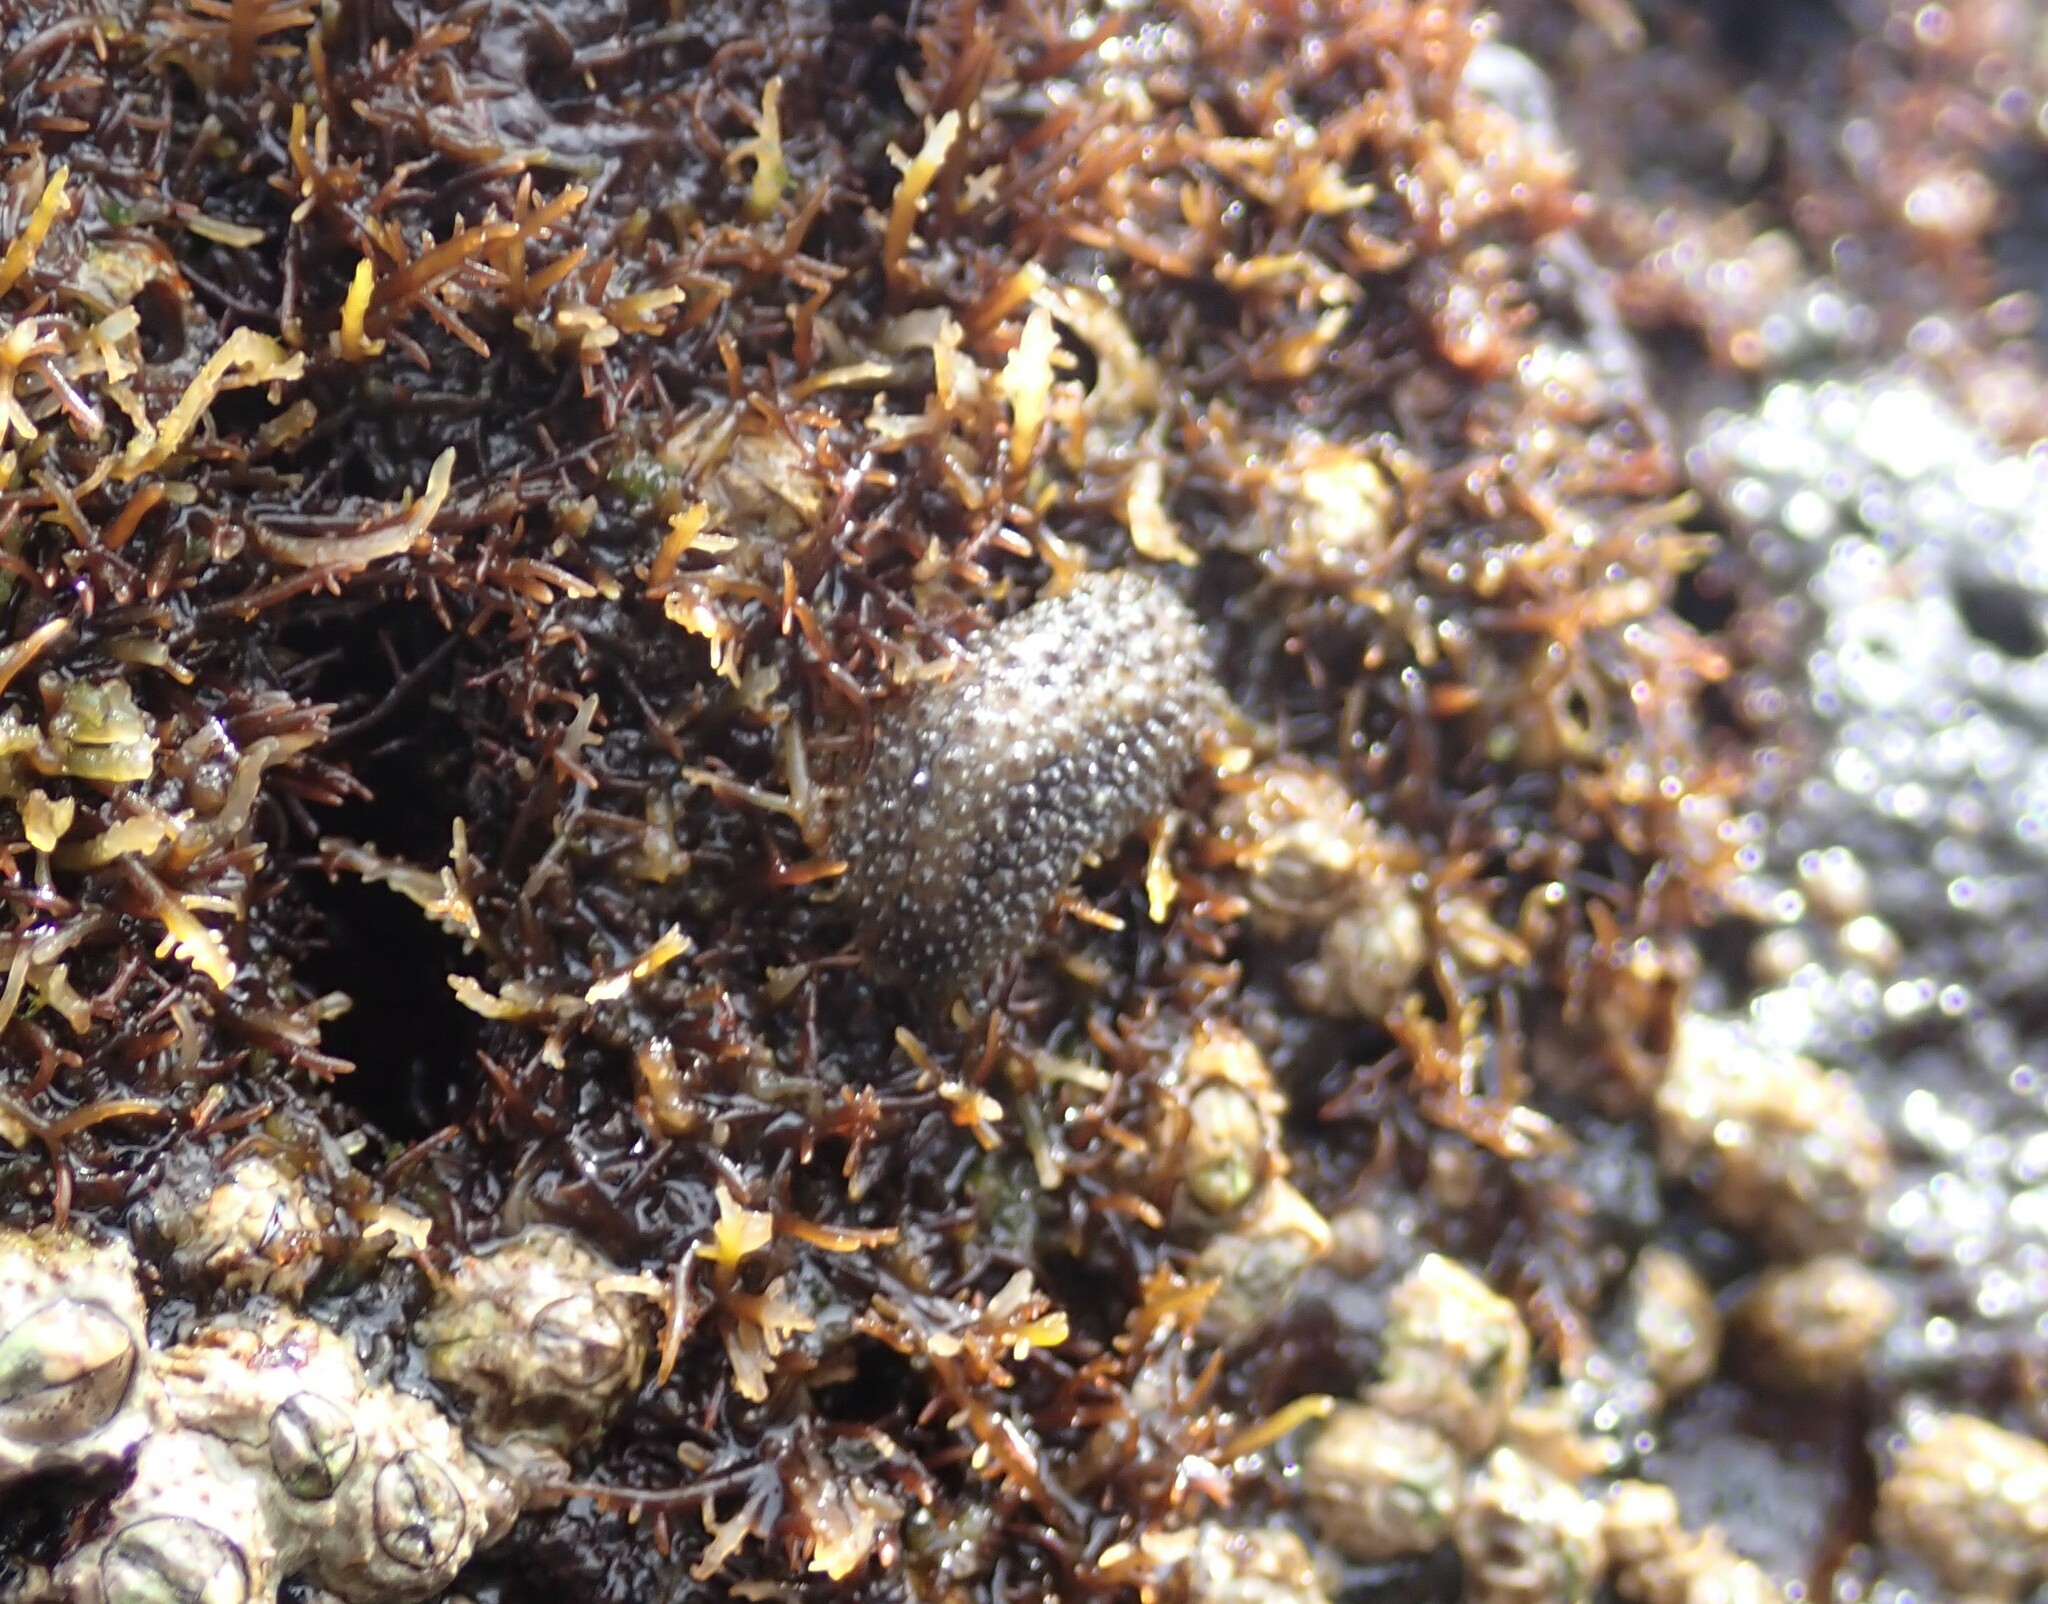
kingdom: Animalia
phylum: Mollusca
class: Gastropoda
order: Systellommatophora
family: Onchidiidae
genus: Onchidella
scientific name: Onchidella celtica
